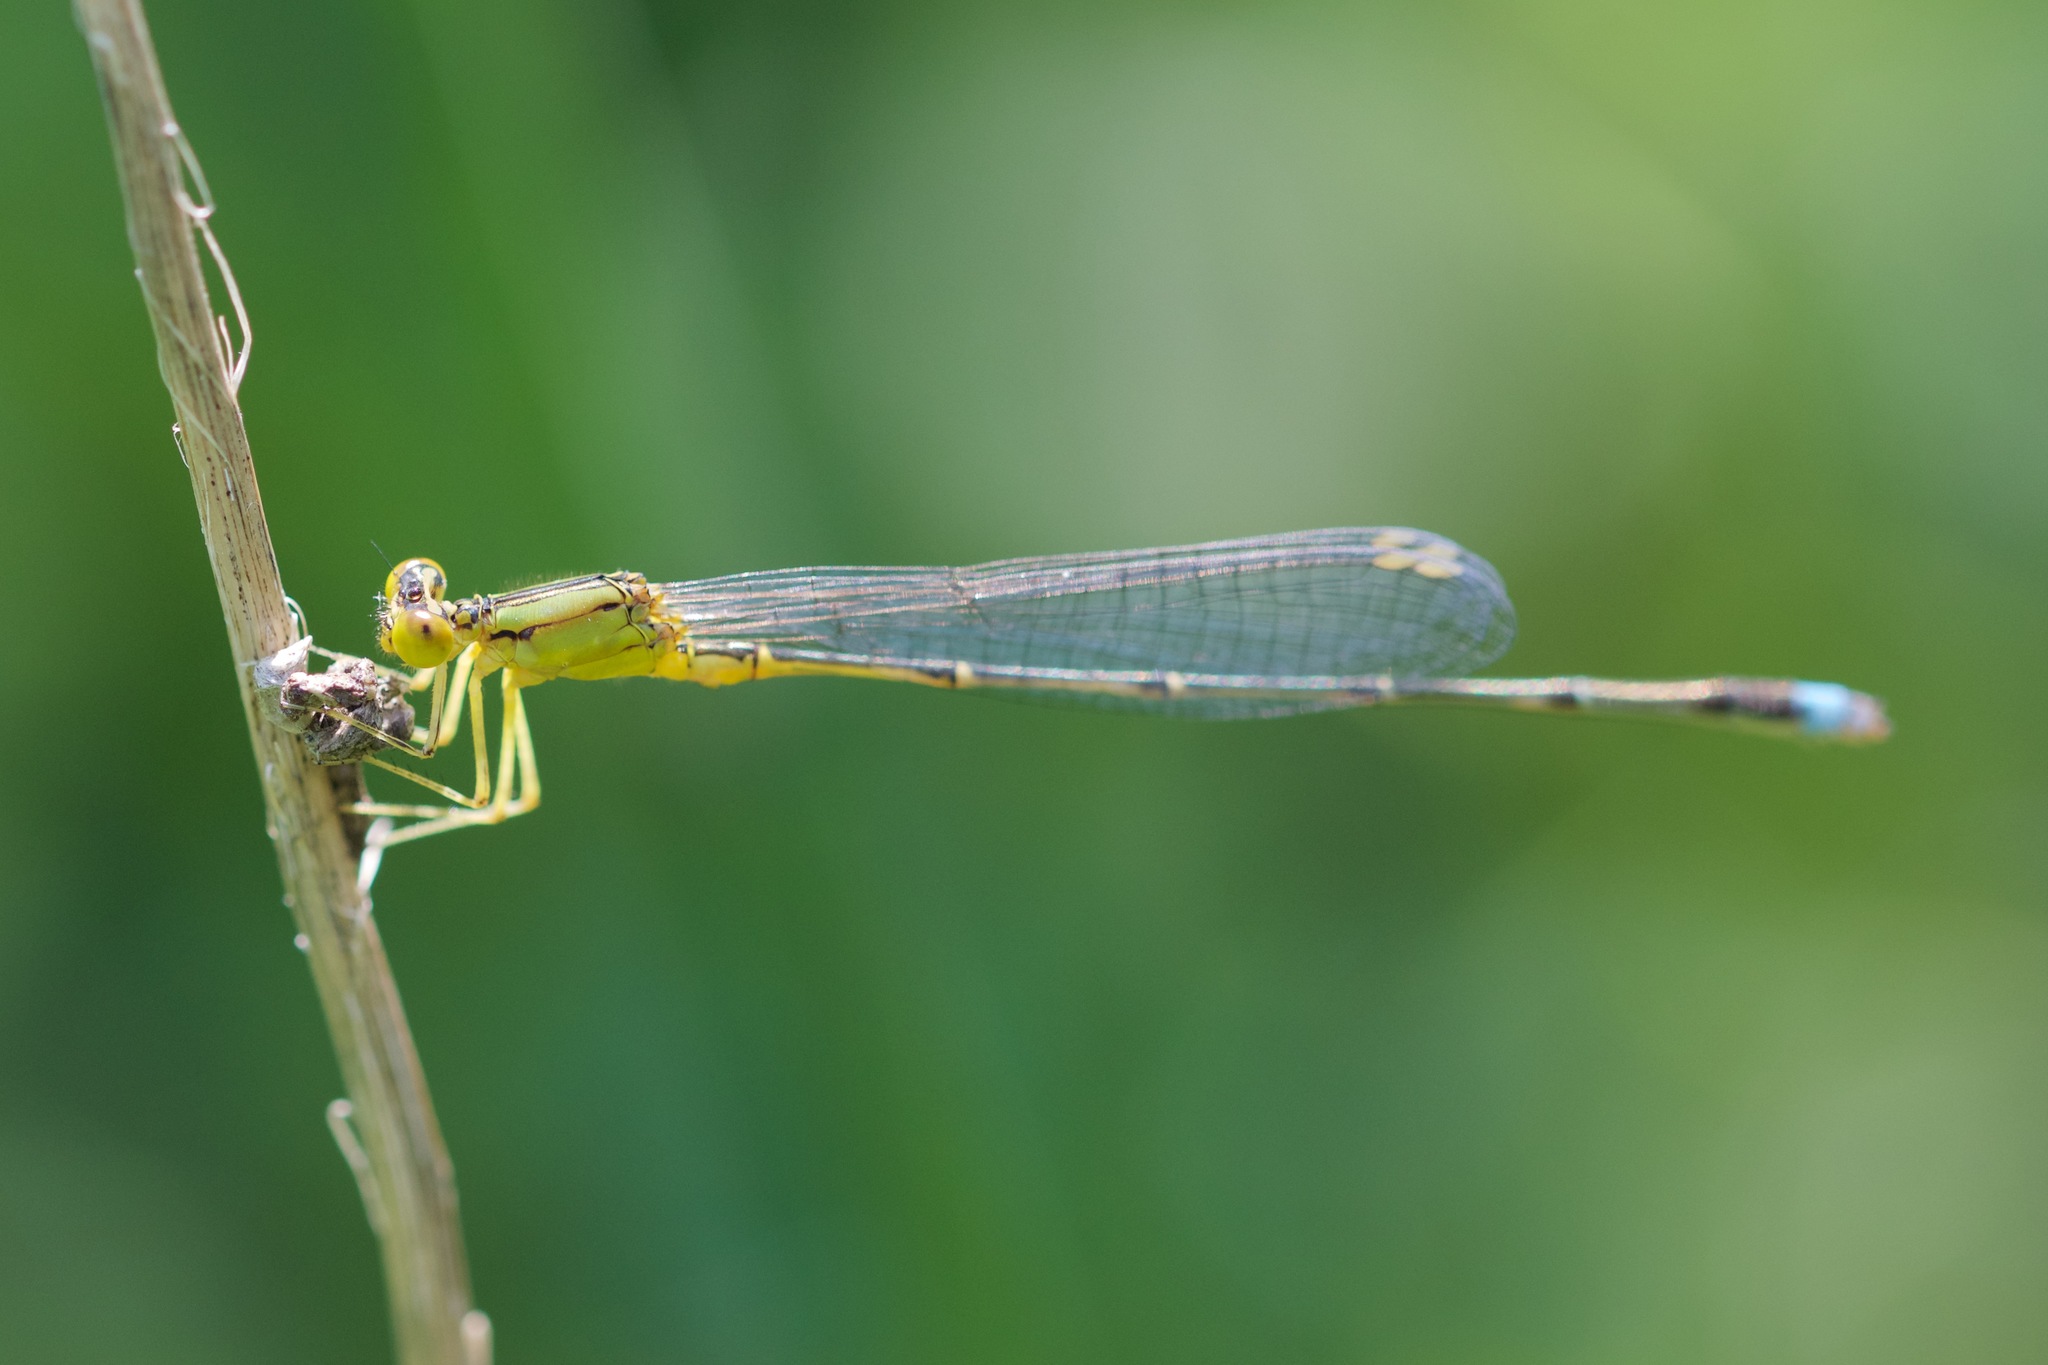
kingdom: Animalia
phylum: Arthropoda
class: Insecta
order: Odonata
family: Coenagrionidae
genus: Enallagma
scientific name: Enallagma vesperum
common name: Vesper bluet
